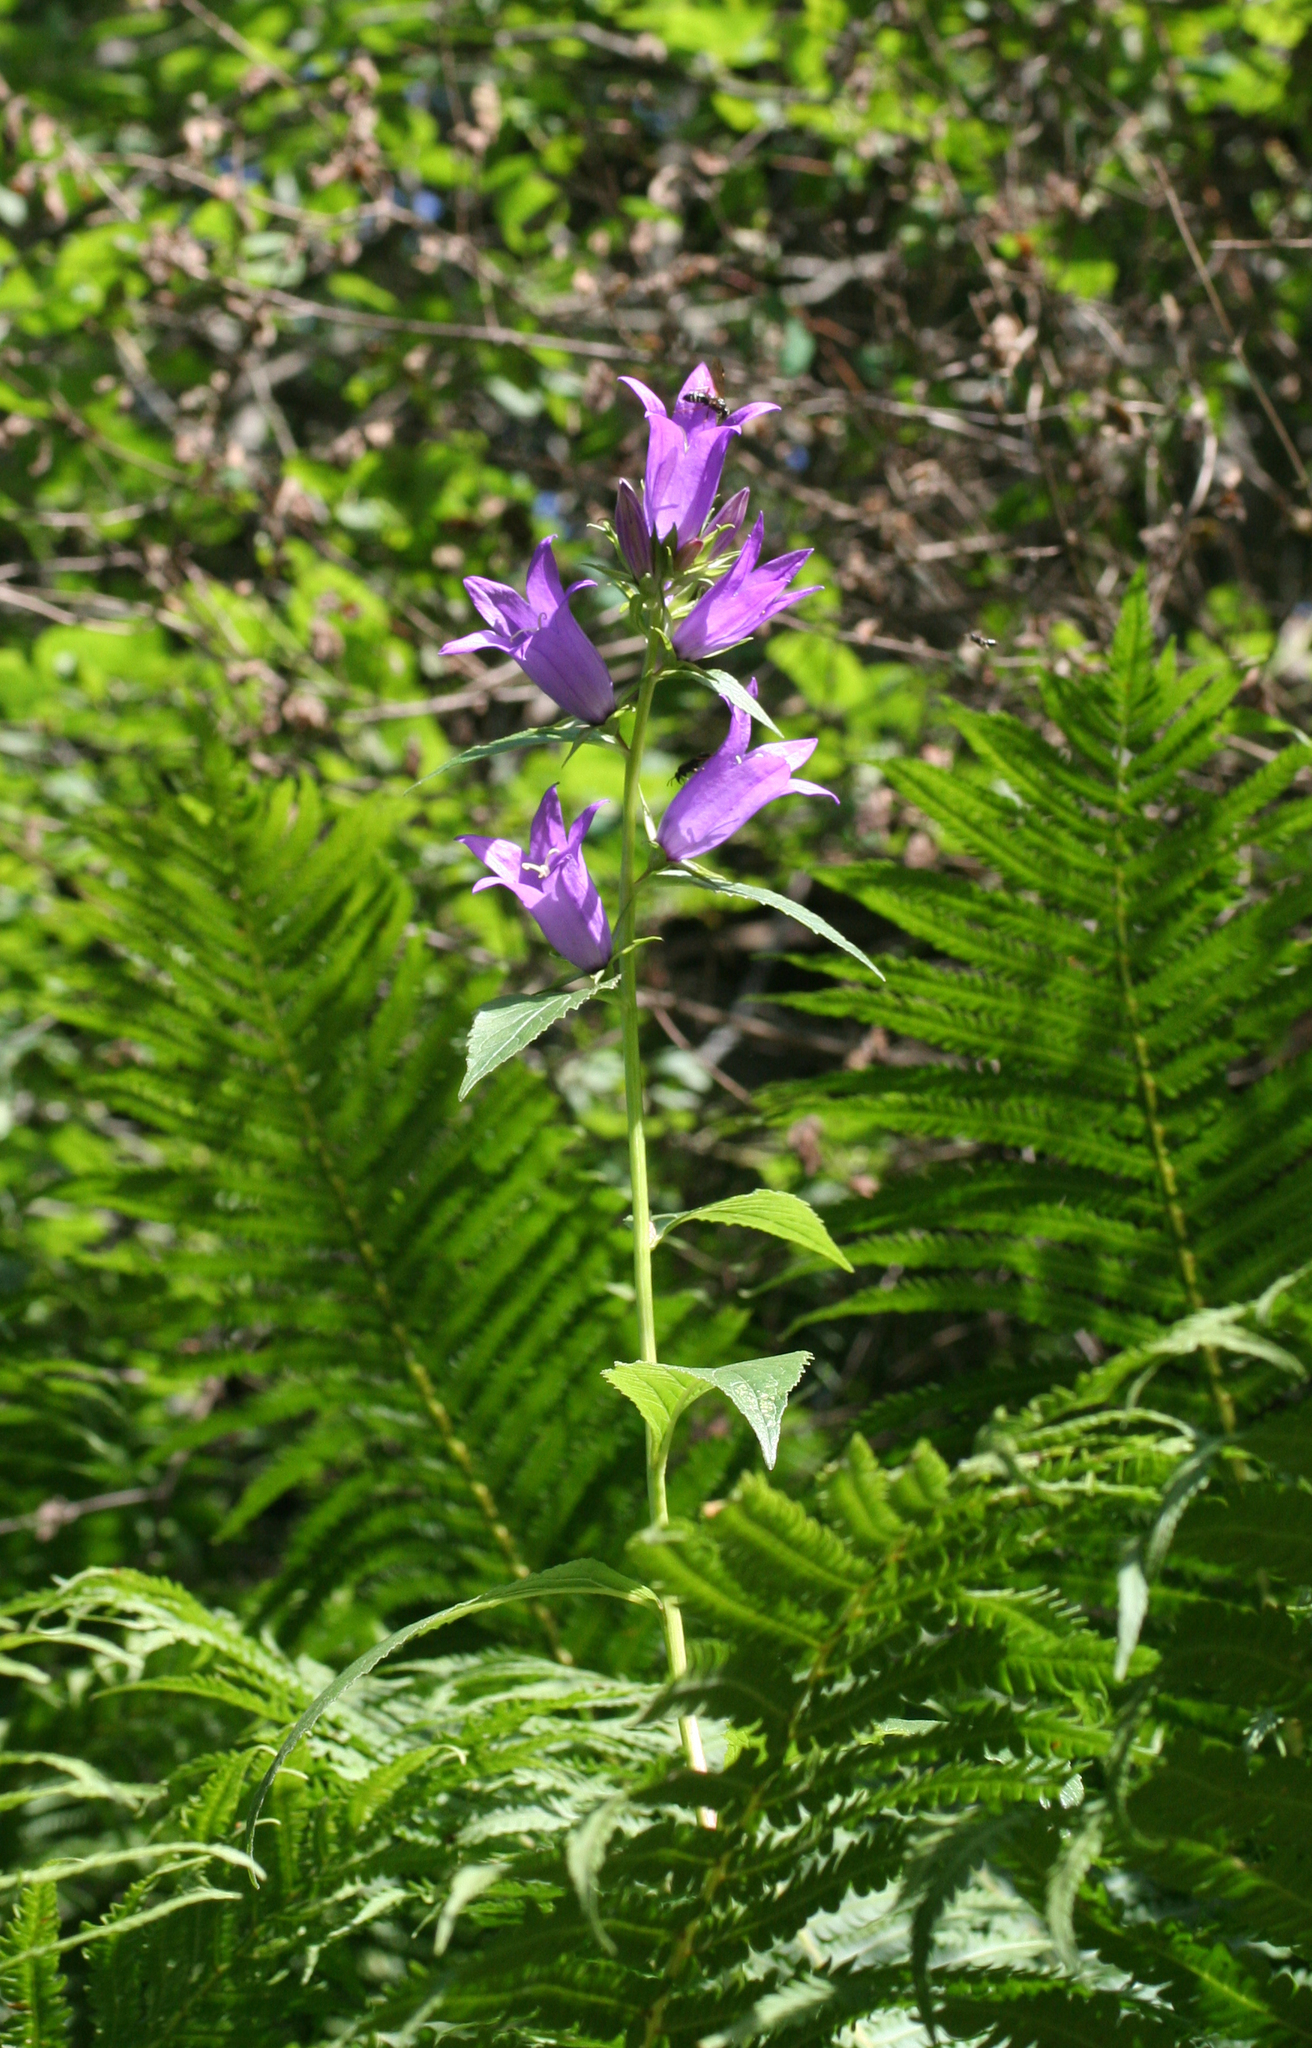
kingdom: Plantae
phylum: Tracheophyta
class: Magnoliopsida
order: Asterales
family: Campanulaceae
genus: Campanula
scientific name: Campanula rapunculoides
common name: Creeping bellflower
